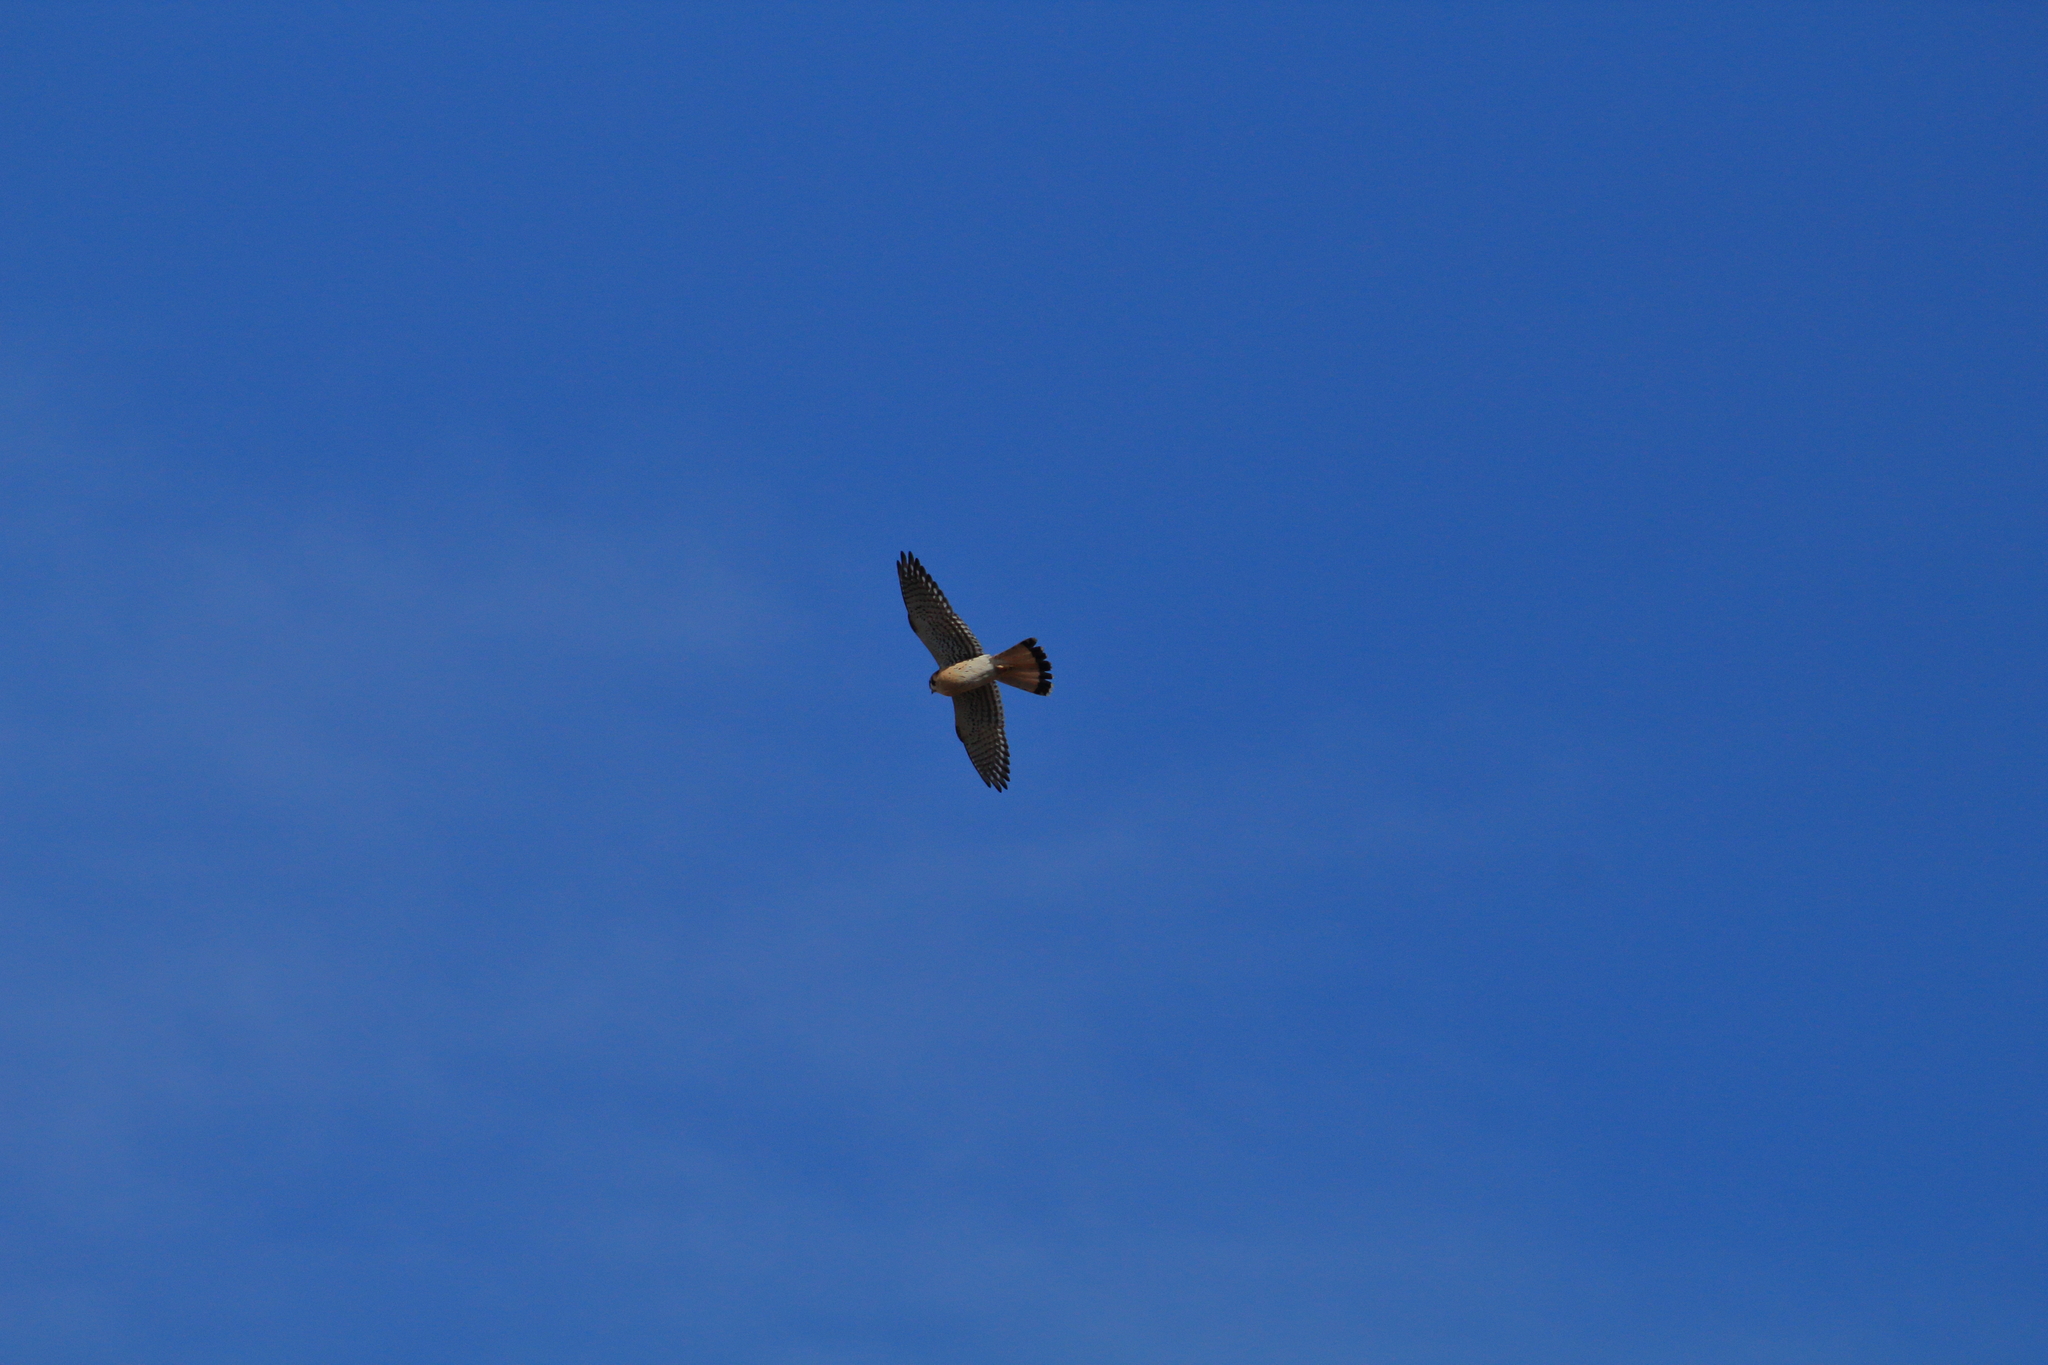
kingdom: Animalia
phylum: Chordata
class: Aves
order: Falconiformes
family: Falconidae
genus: Falco
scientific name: Falco sparverius
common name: American kestrel
